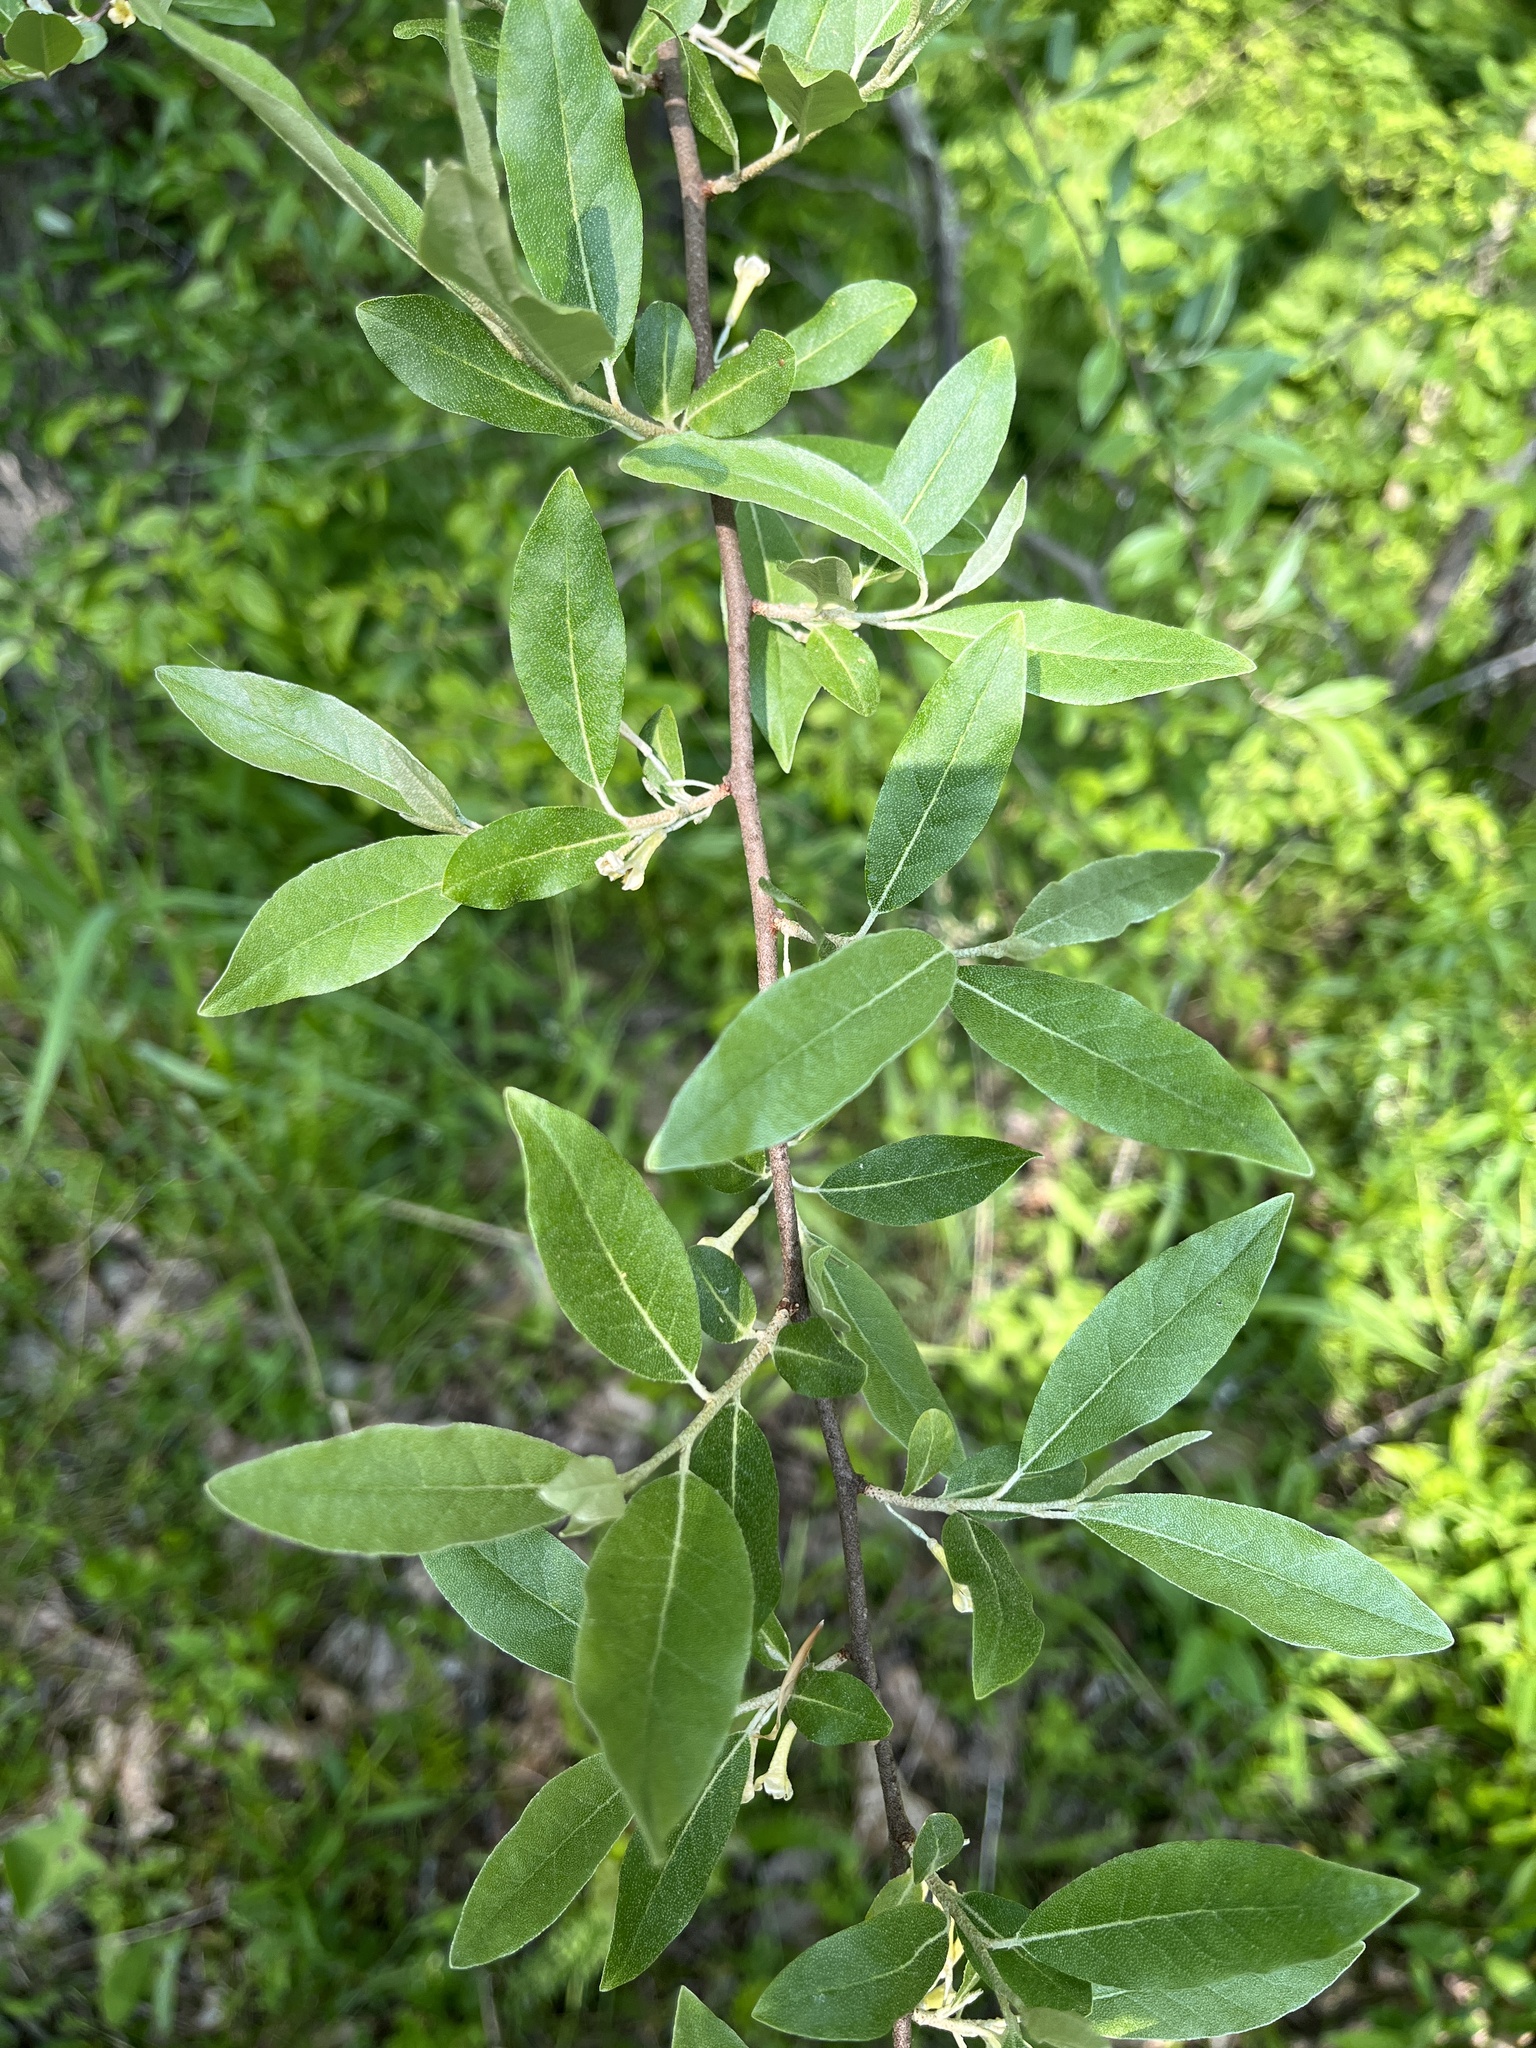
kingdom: Plantae
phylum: Tracheophyta
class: Magnoliopsida
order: Rosales
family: Elaeagnaceae
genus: Elaeagnus
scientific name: Elaeagnus umbellata
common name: Autumn olive
